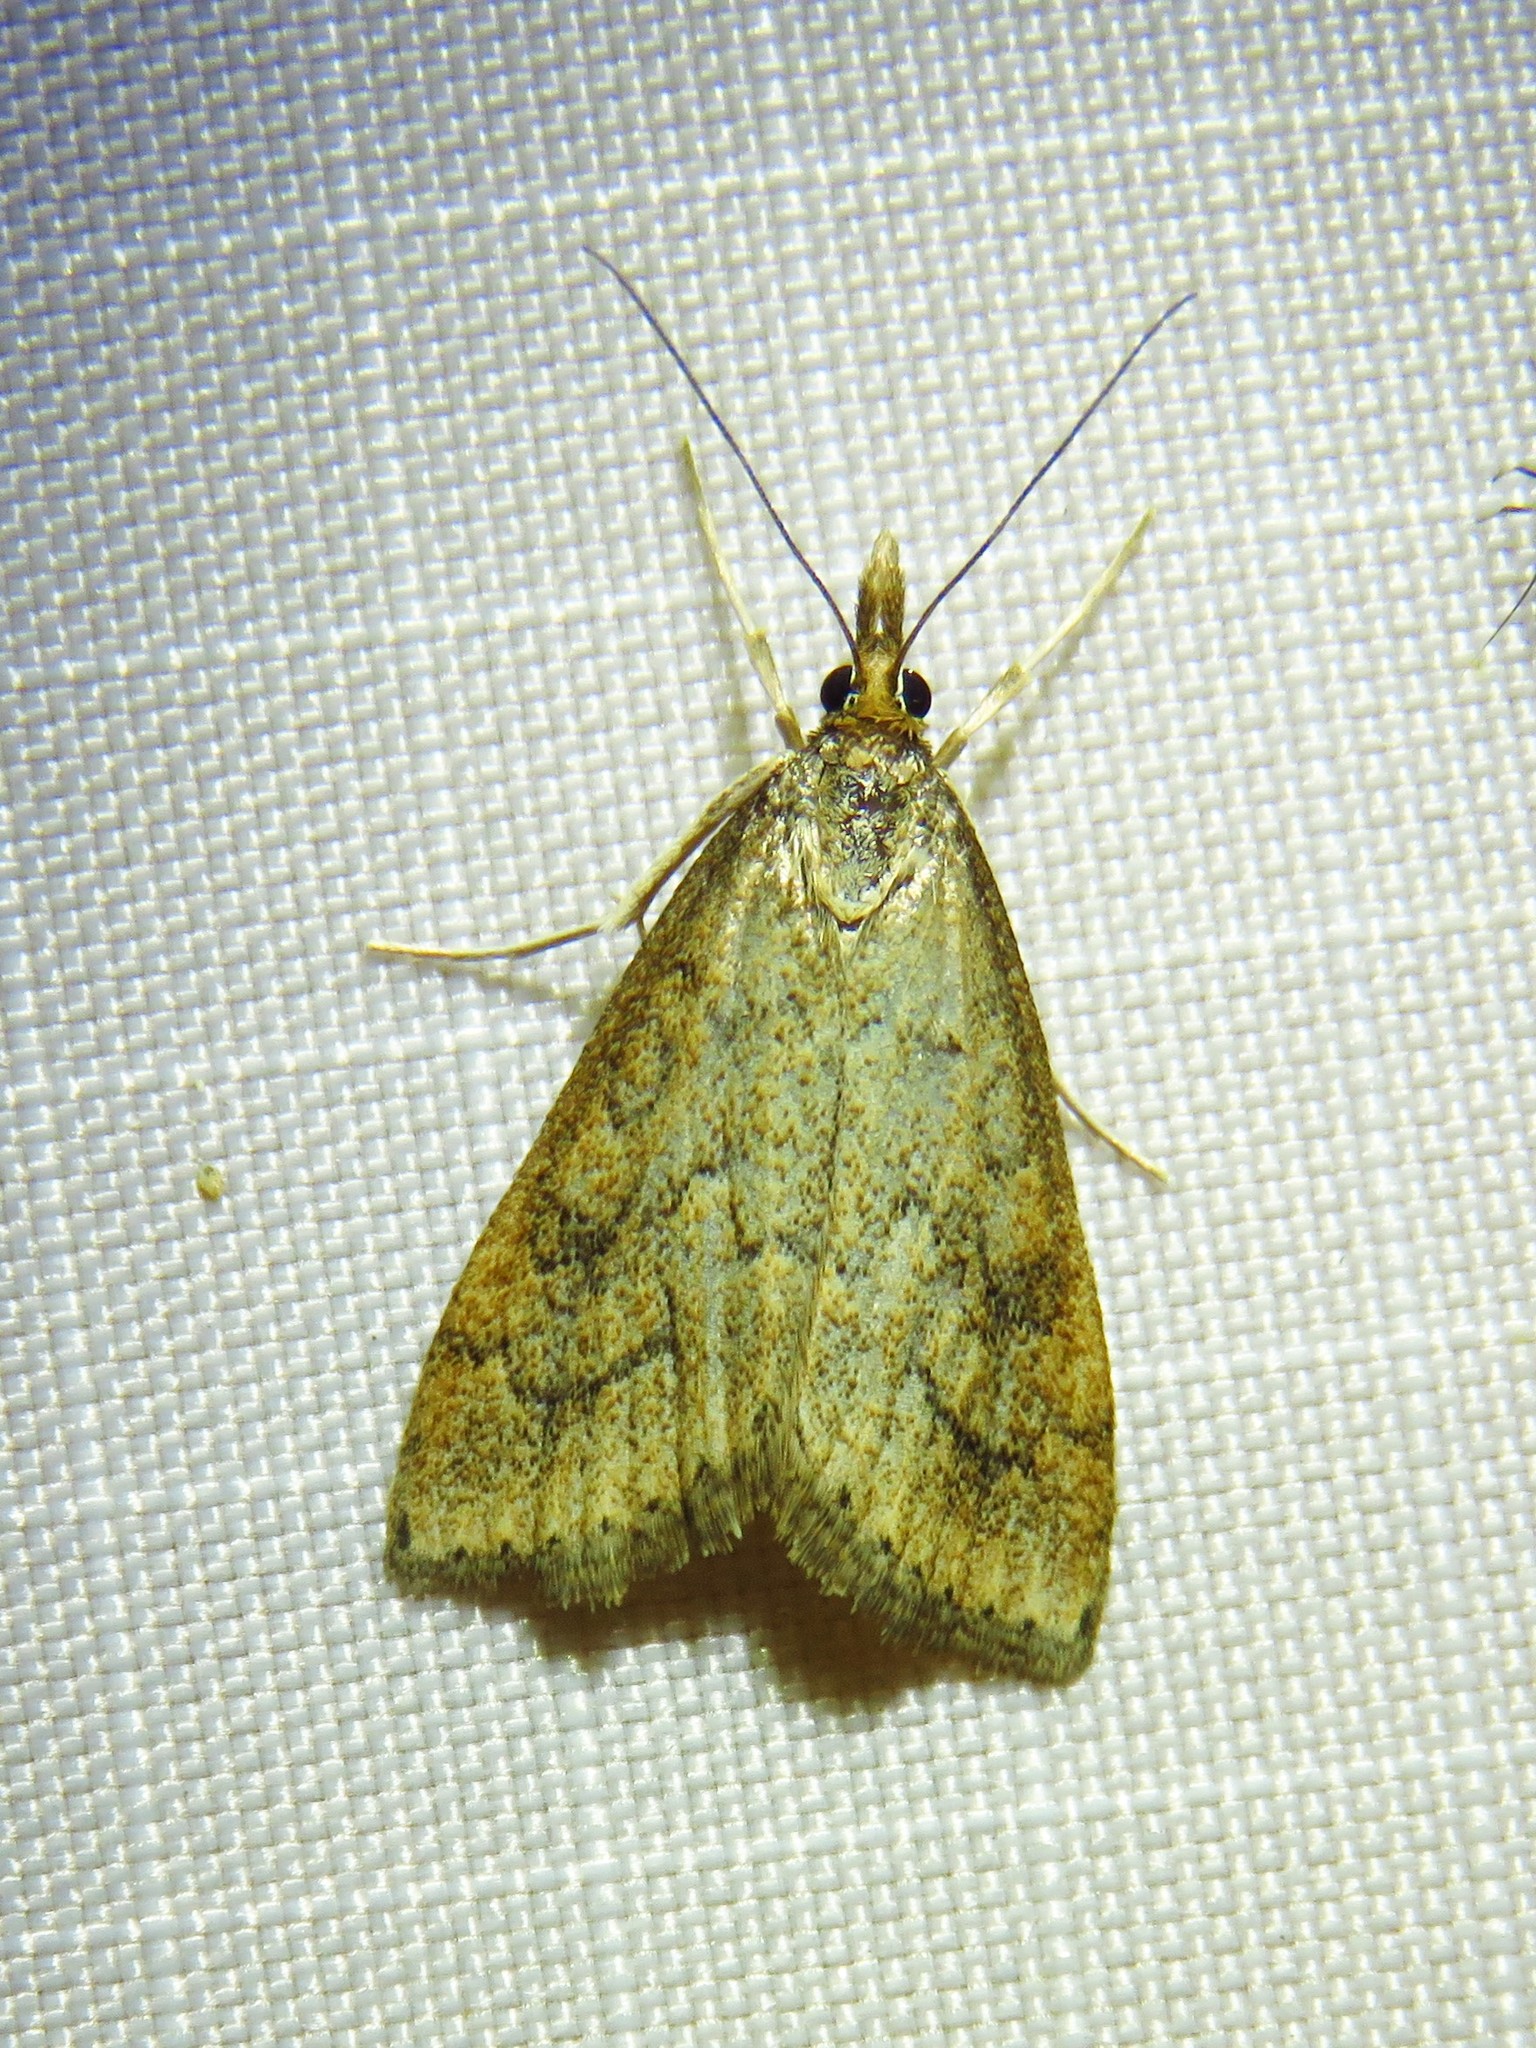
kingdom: Animalia
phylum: Arthropoda
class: Insecta
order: Lepidoptera
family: Crambidae
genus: Udea
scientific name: Udea rubigalis
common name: Celery leaftier moth
